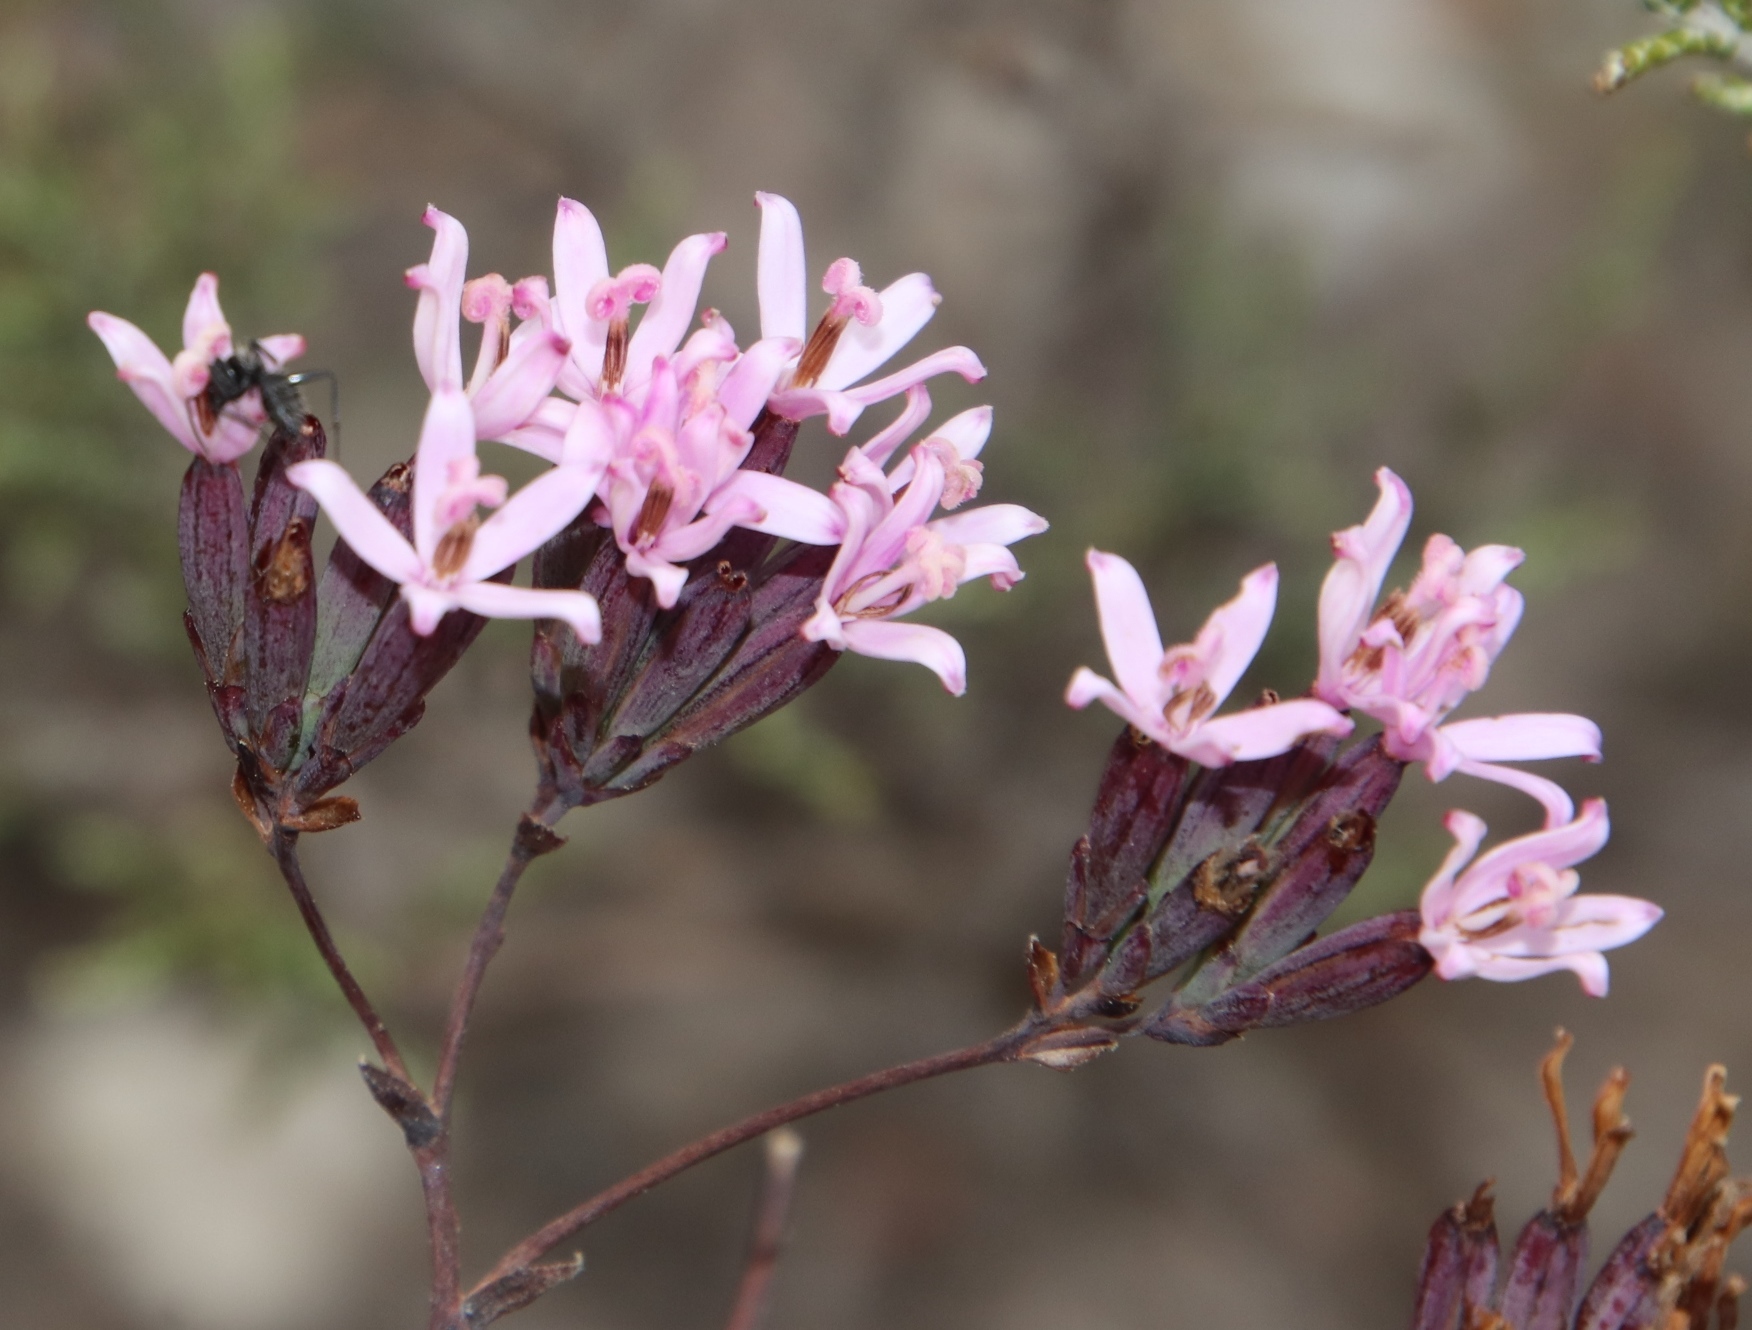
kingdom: Animalia
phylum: Arthropoda
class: Insecta
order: Hymenoptera
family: Formicidae
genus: Camponotus
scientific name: Camponotus niveosetosus
